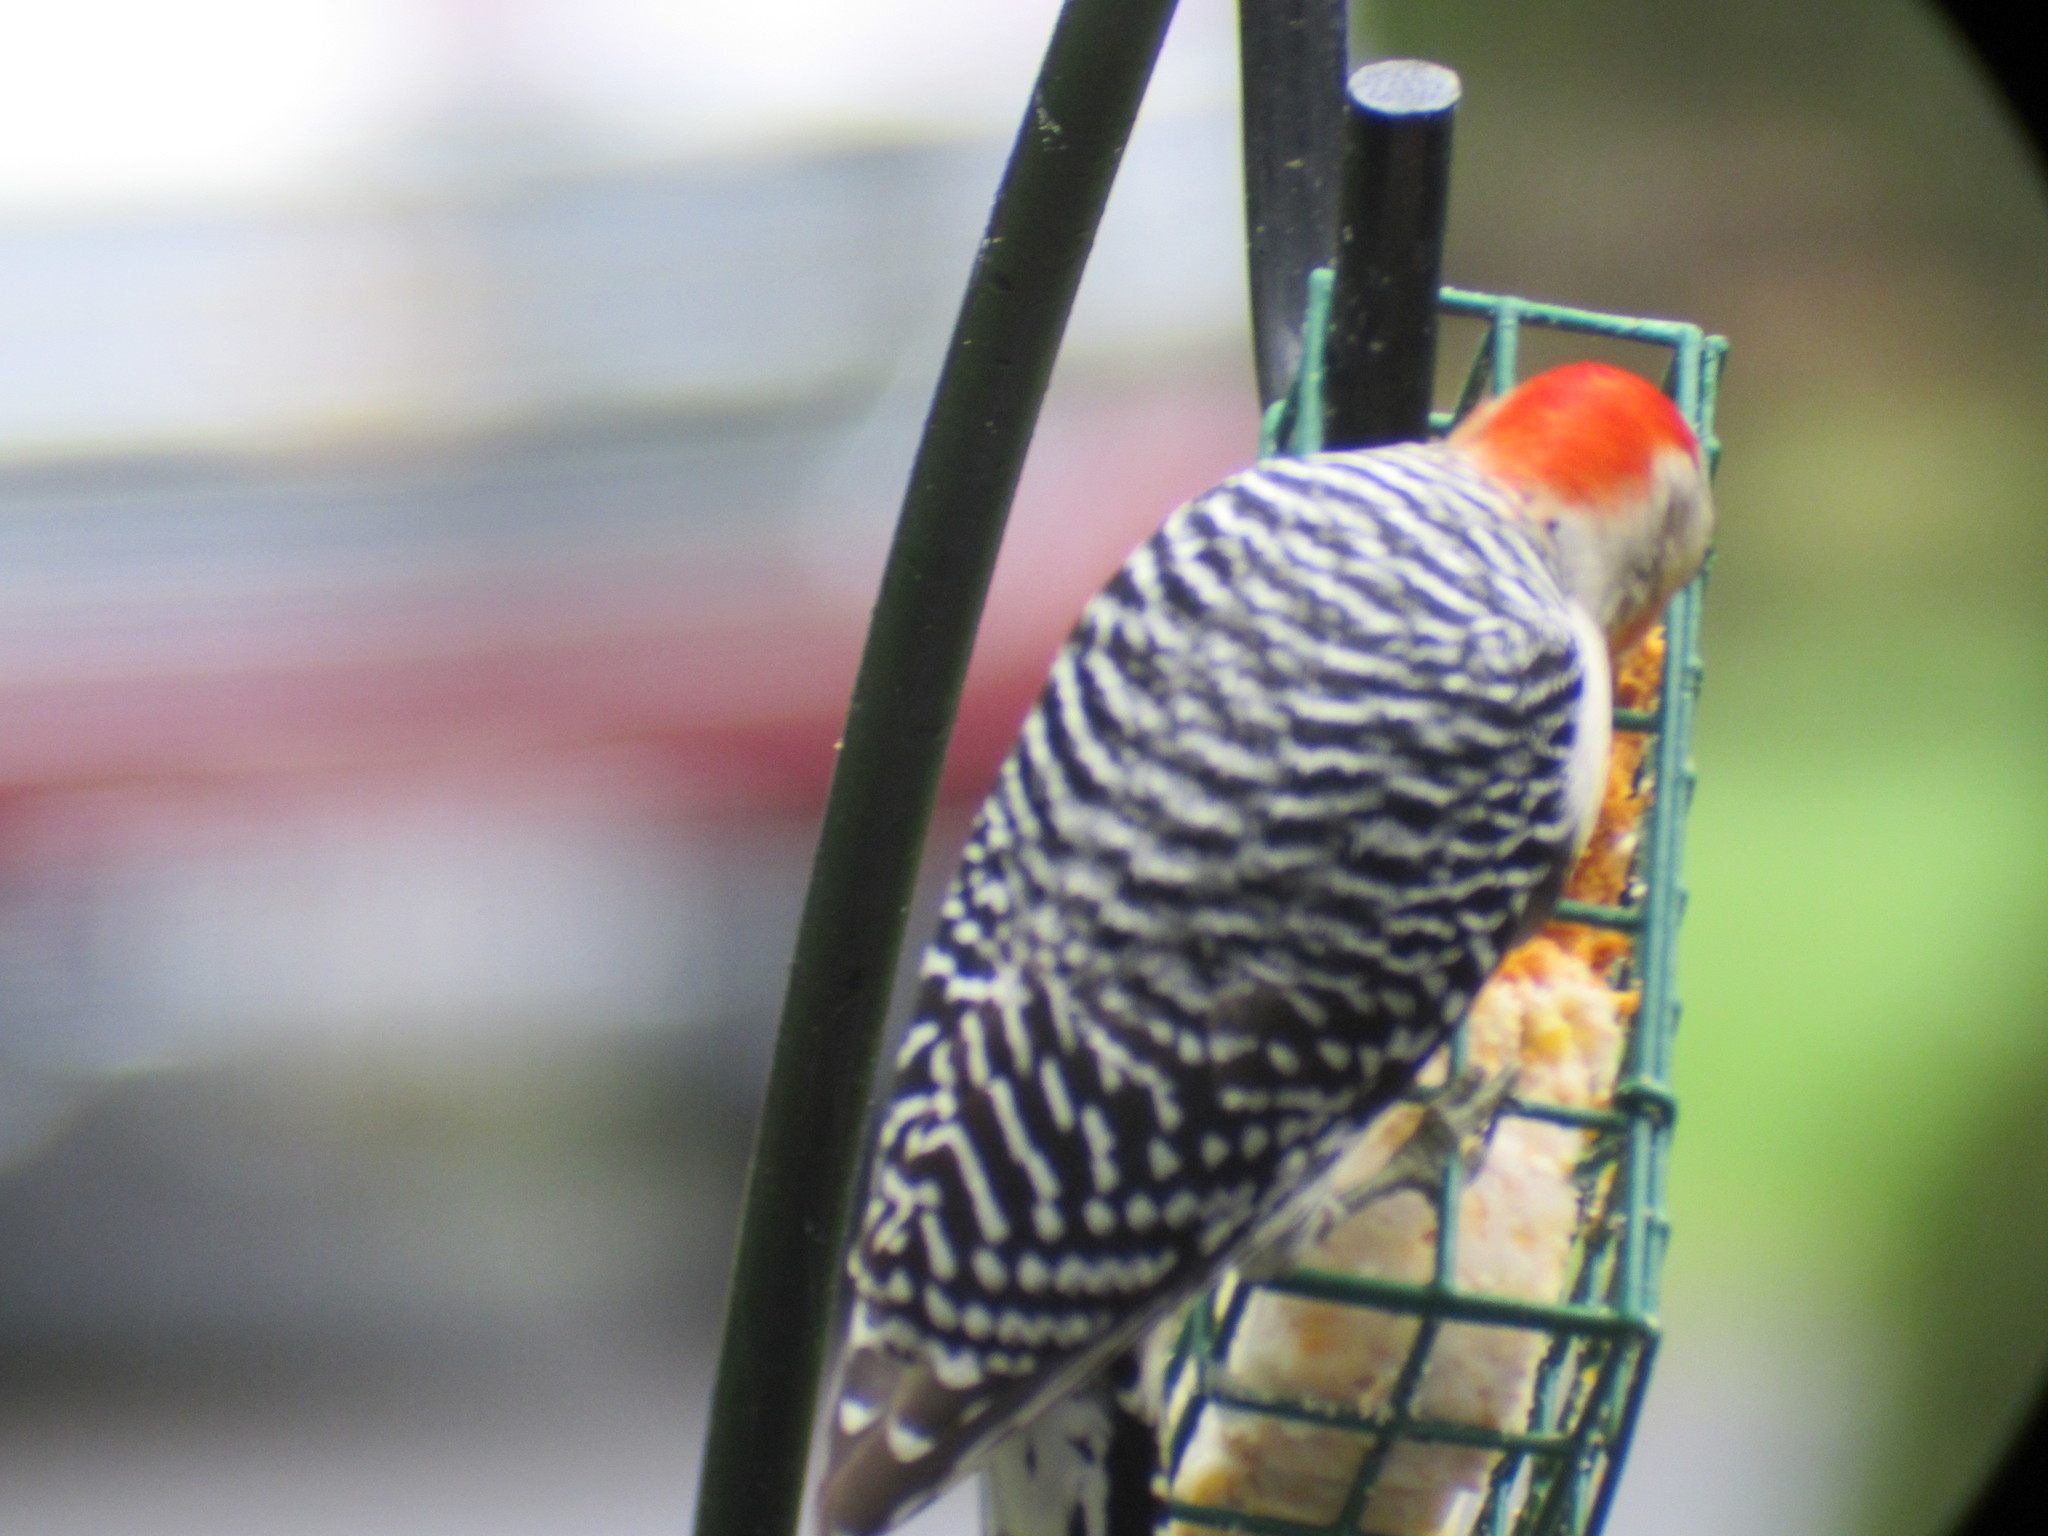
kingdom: Animalia
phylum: Chordata
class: Aves
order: Piciformes
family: Picidae
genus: Melanerpes
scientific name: Melanerpes carolinus
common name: Red-bellied woodpecker
